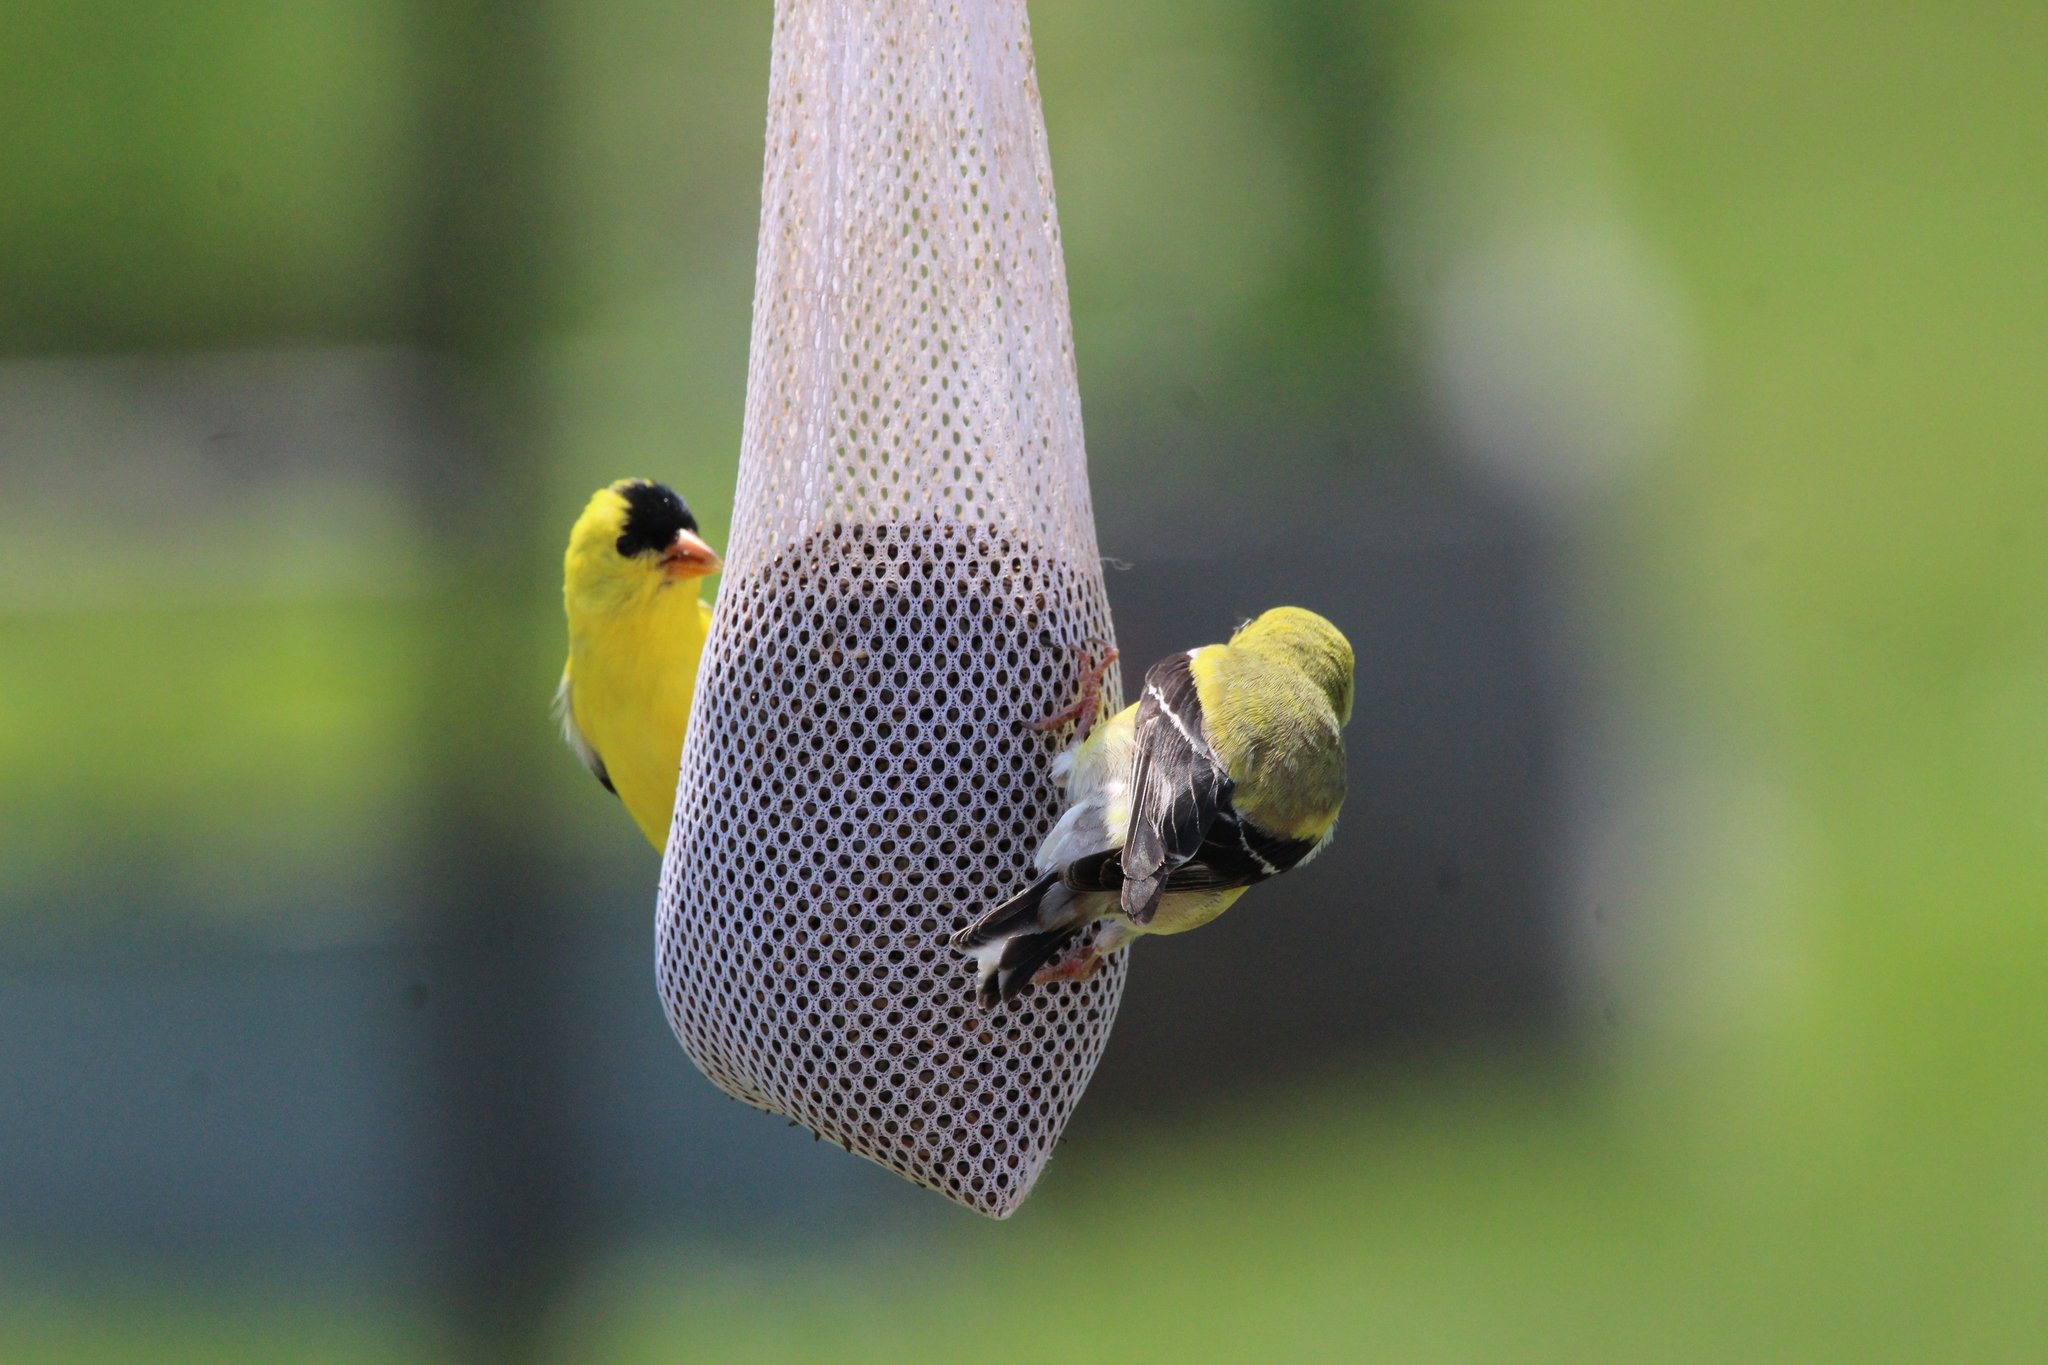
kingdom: Animalia
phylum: Chordata
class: Aves
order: Passeriformes
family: Fringillidae
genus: Spinus
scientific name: Spinus tristis
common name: American goldfinch
